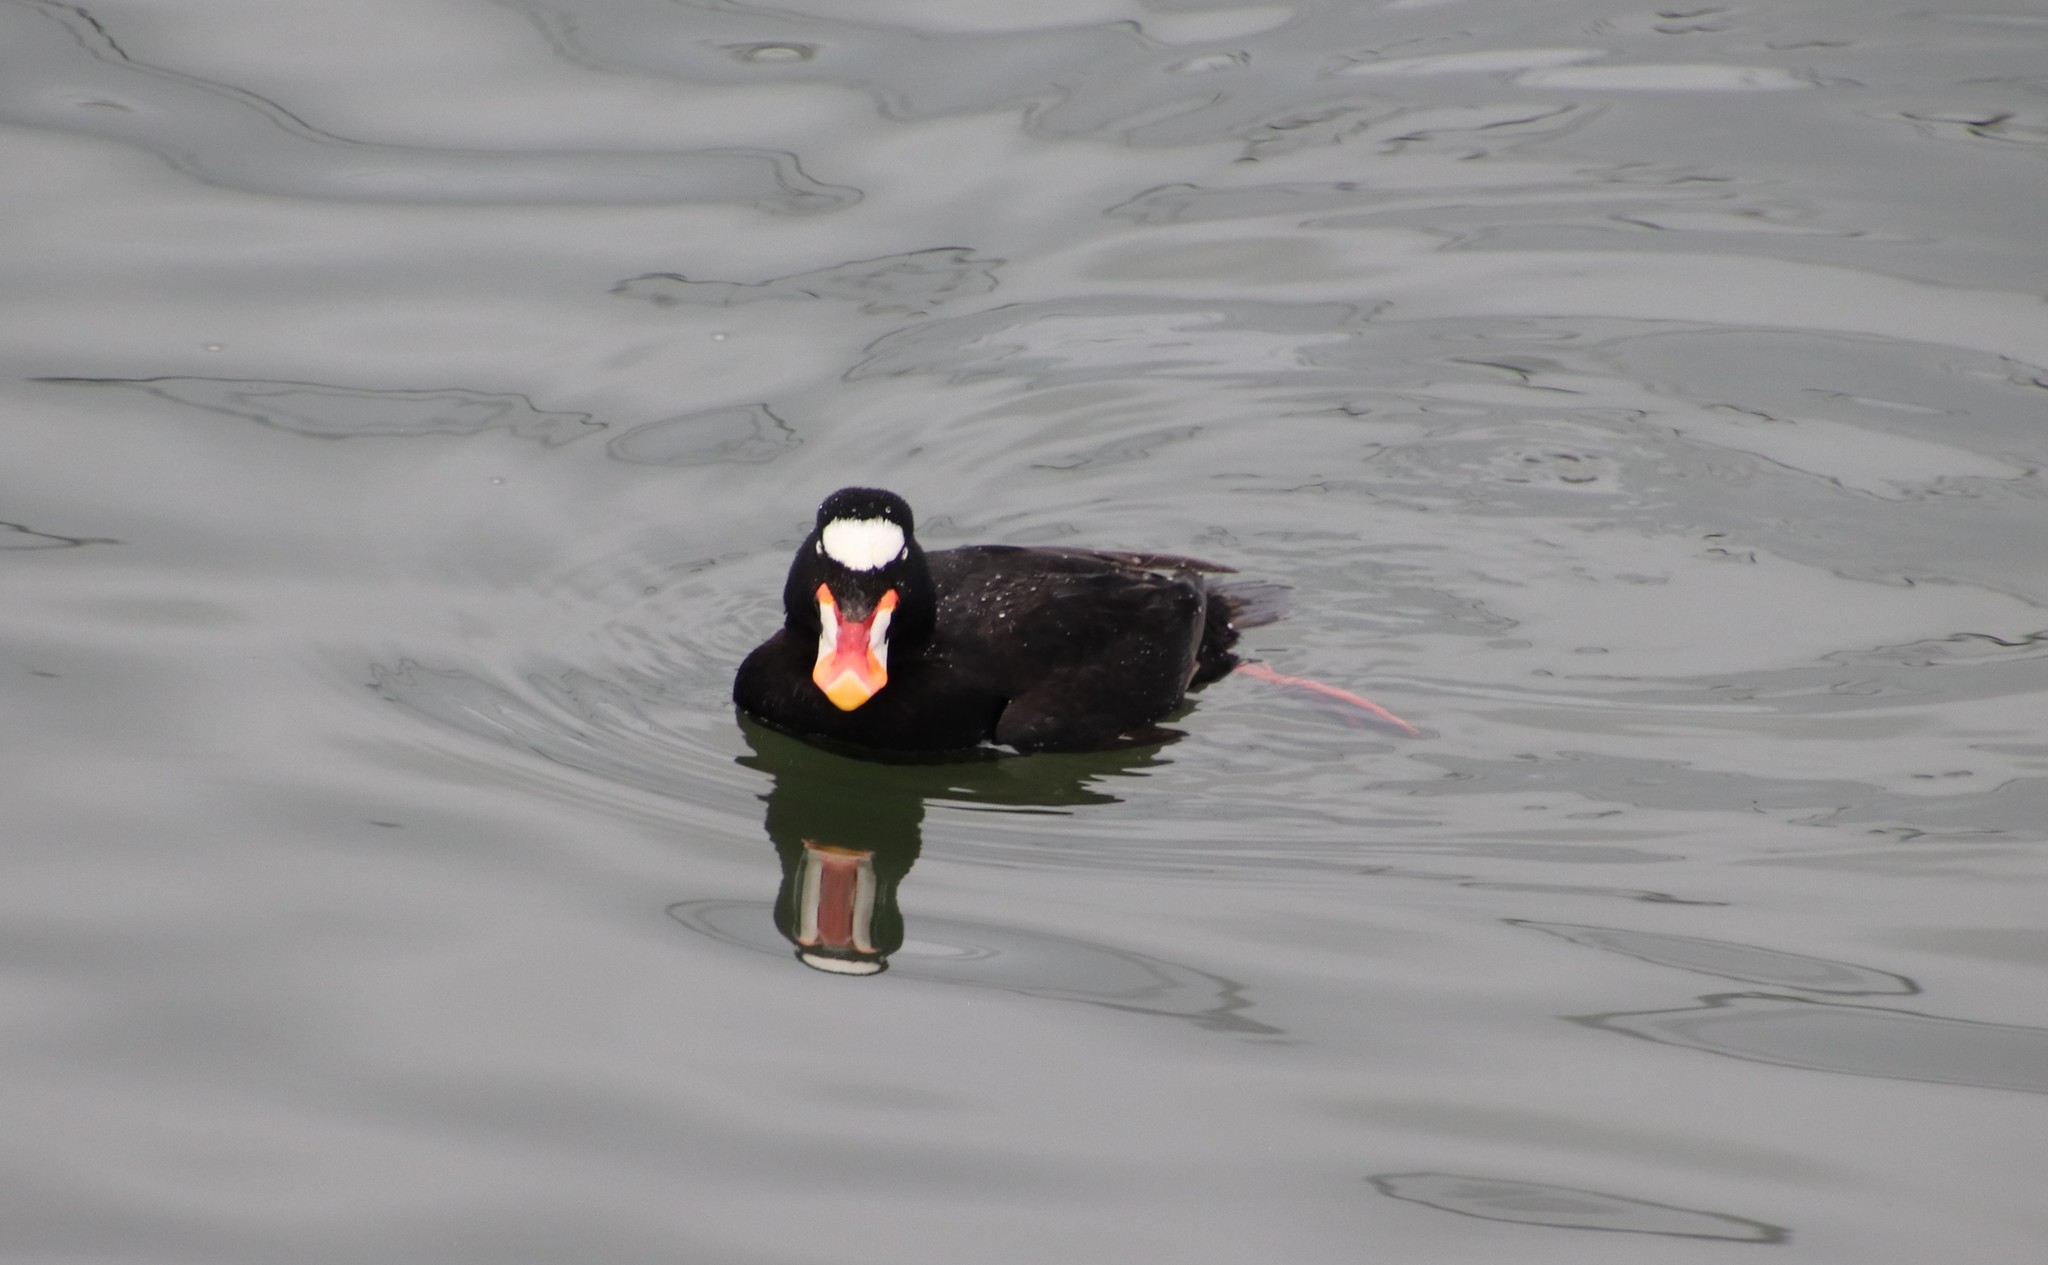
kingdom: Animalia
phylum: Chordata
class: Aves
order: Anseriformes
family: Anatidae
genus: Melanitta
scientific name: Melanitta perspicillata
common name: Surf scoter
